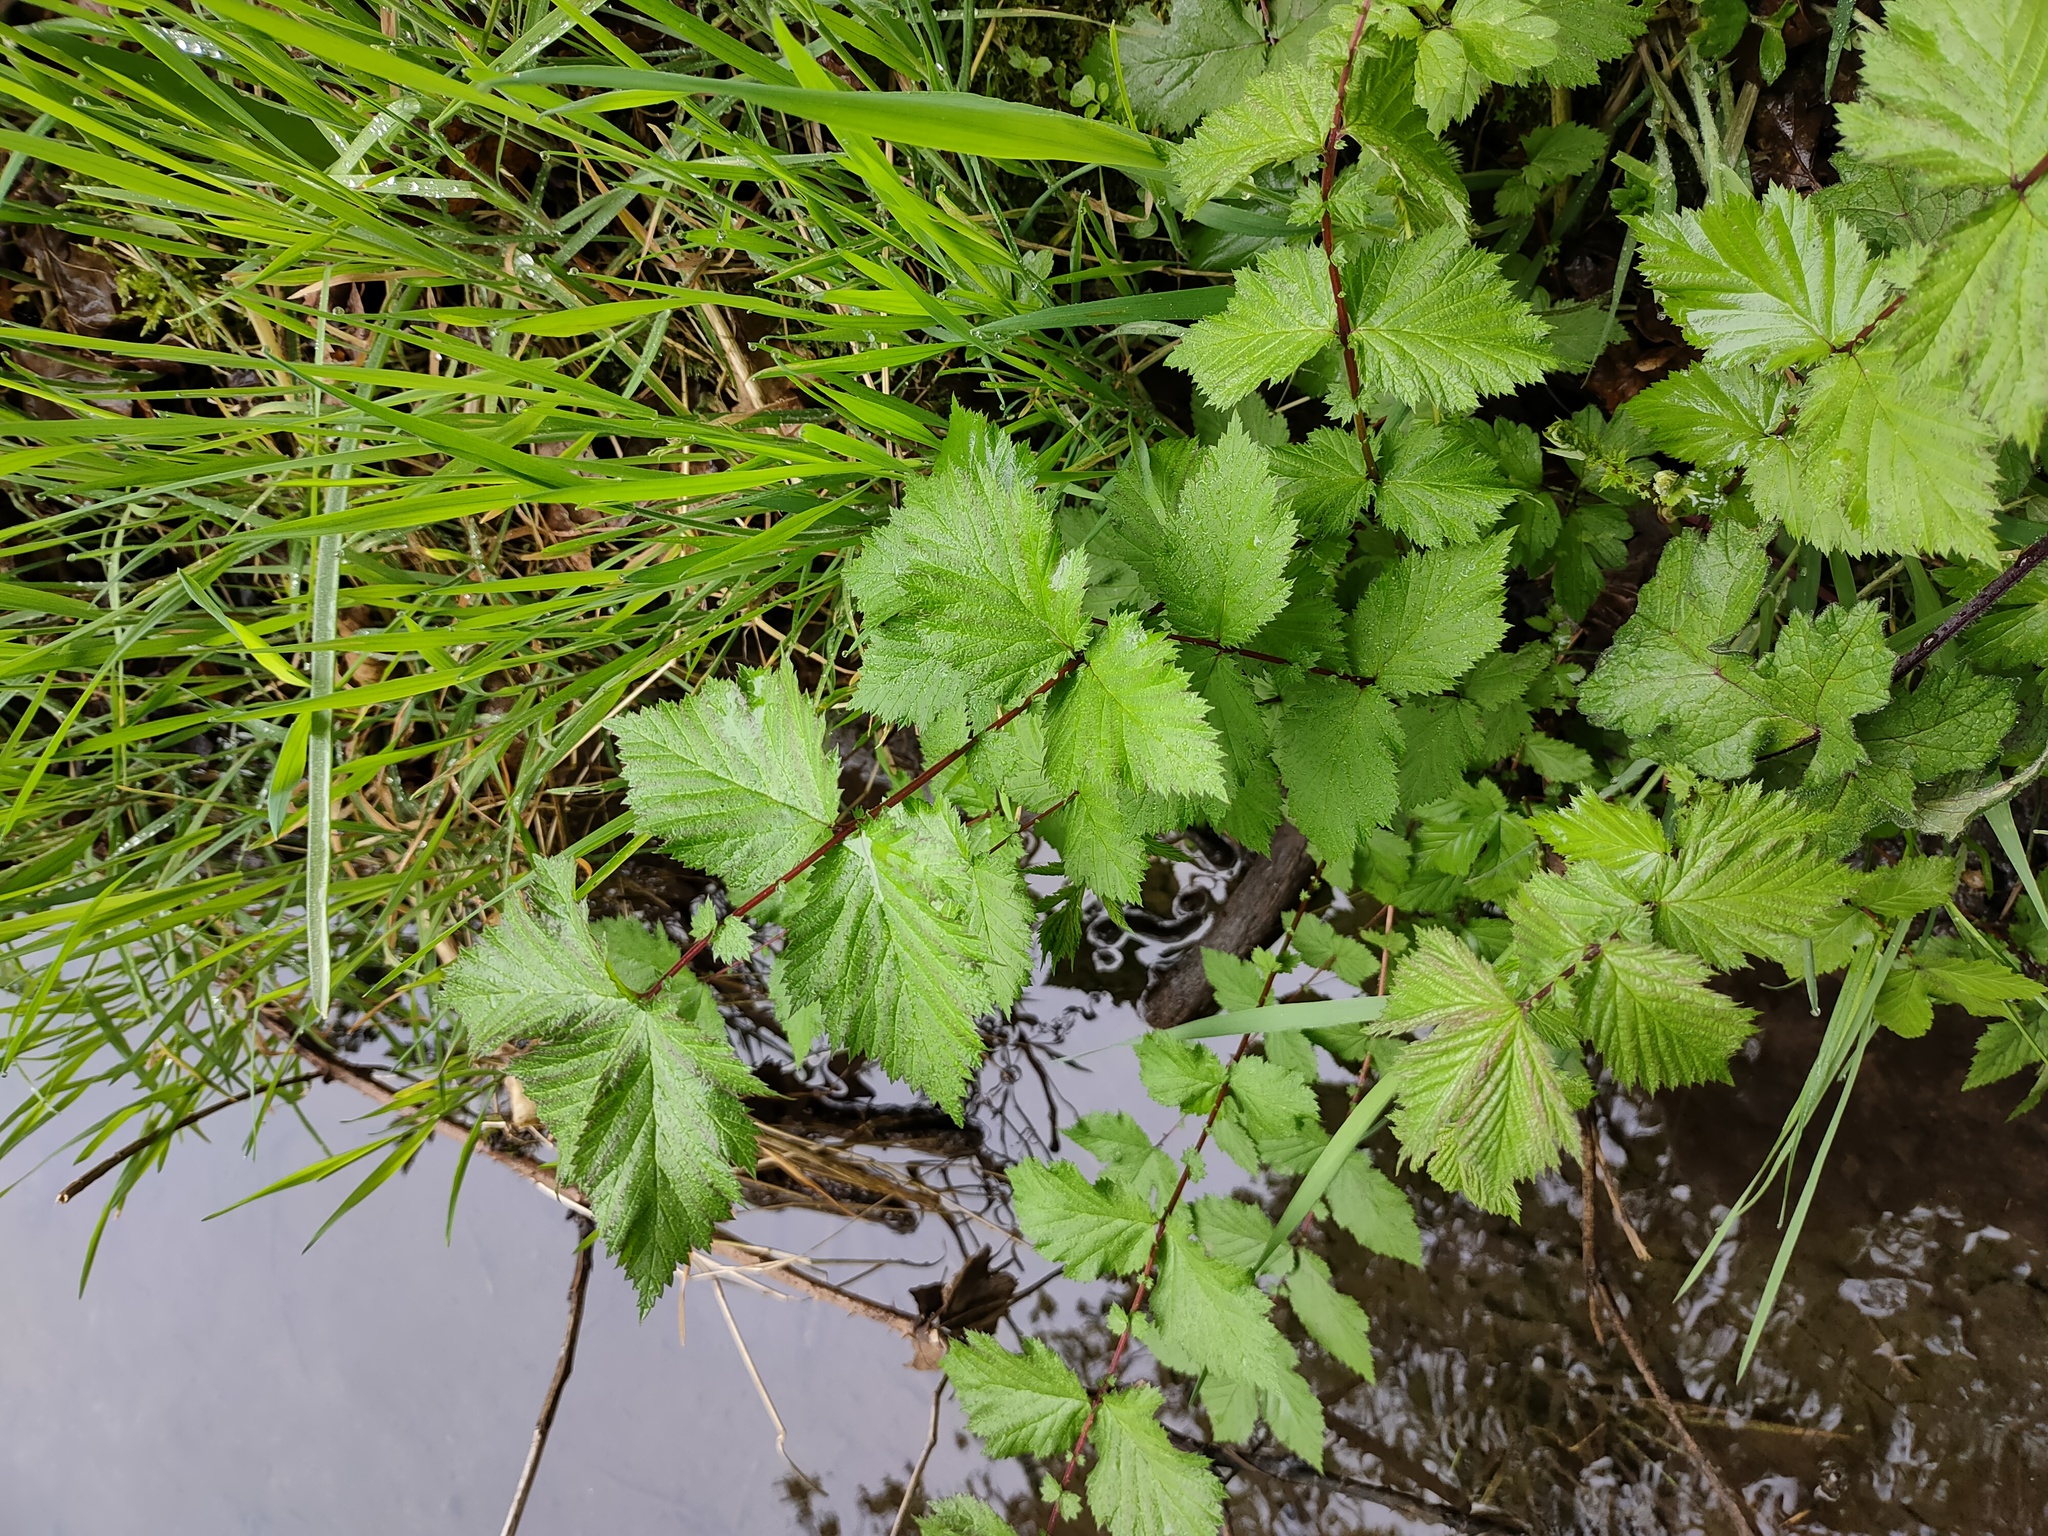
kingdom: Plantae
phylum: Tracheophyta
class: Magnoliopsida
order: Rosales
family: Rosaceae
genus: Filipendula
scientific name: Filipendula ulmaria
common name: Meadowsweet
